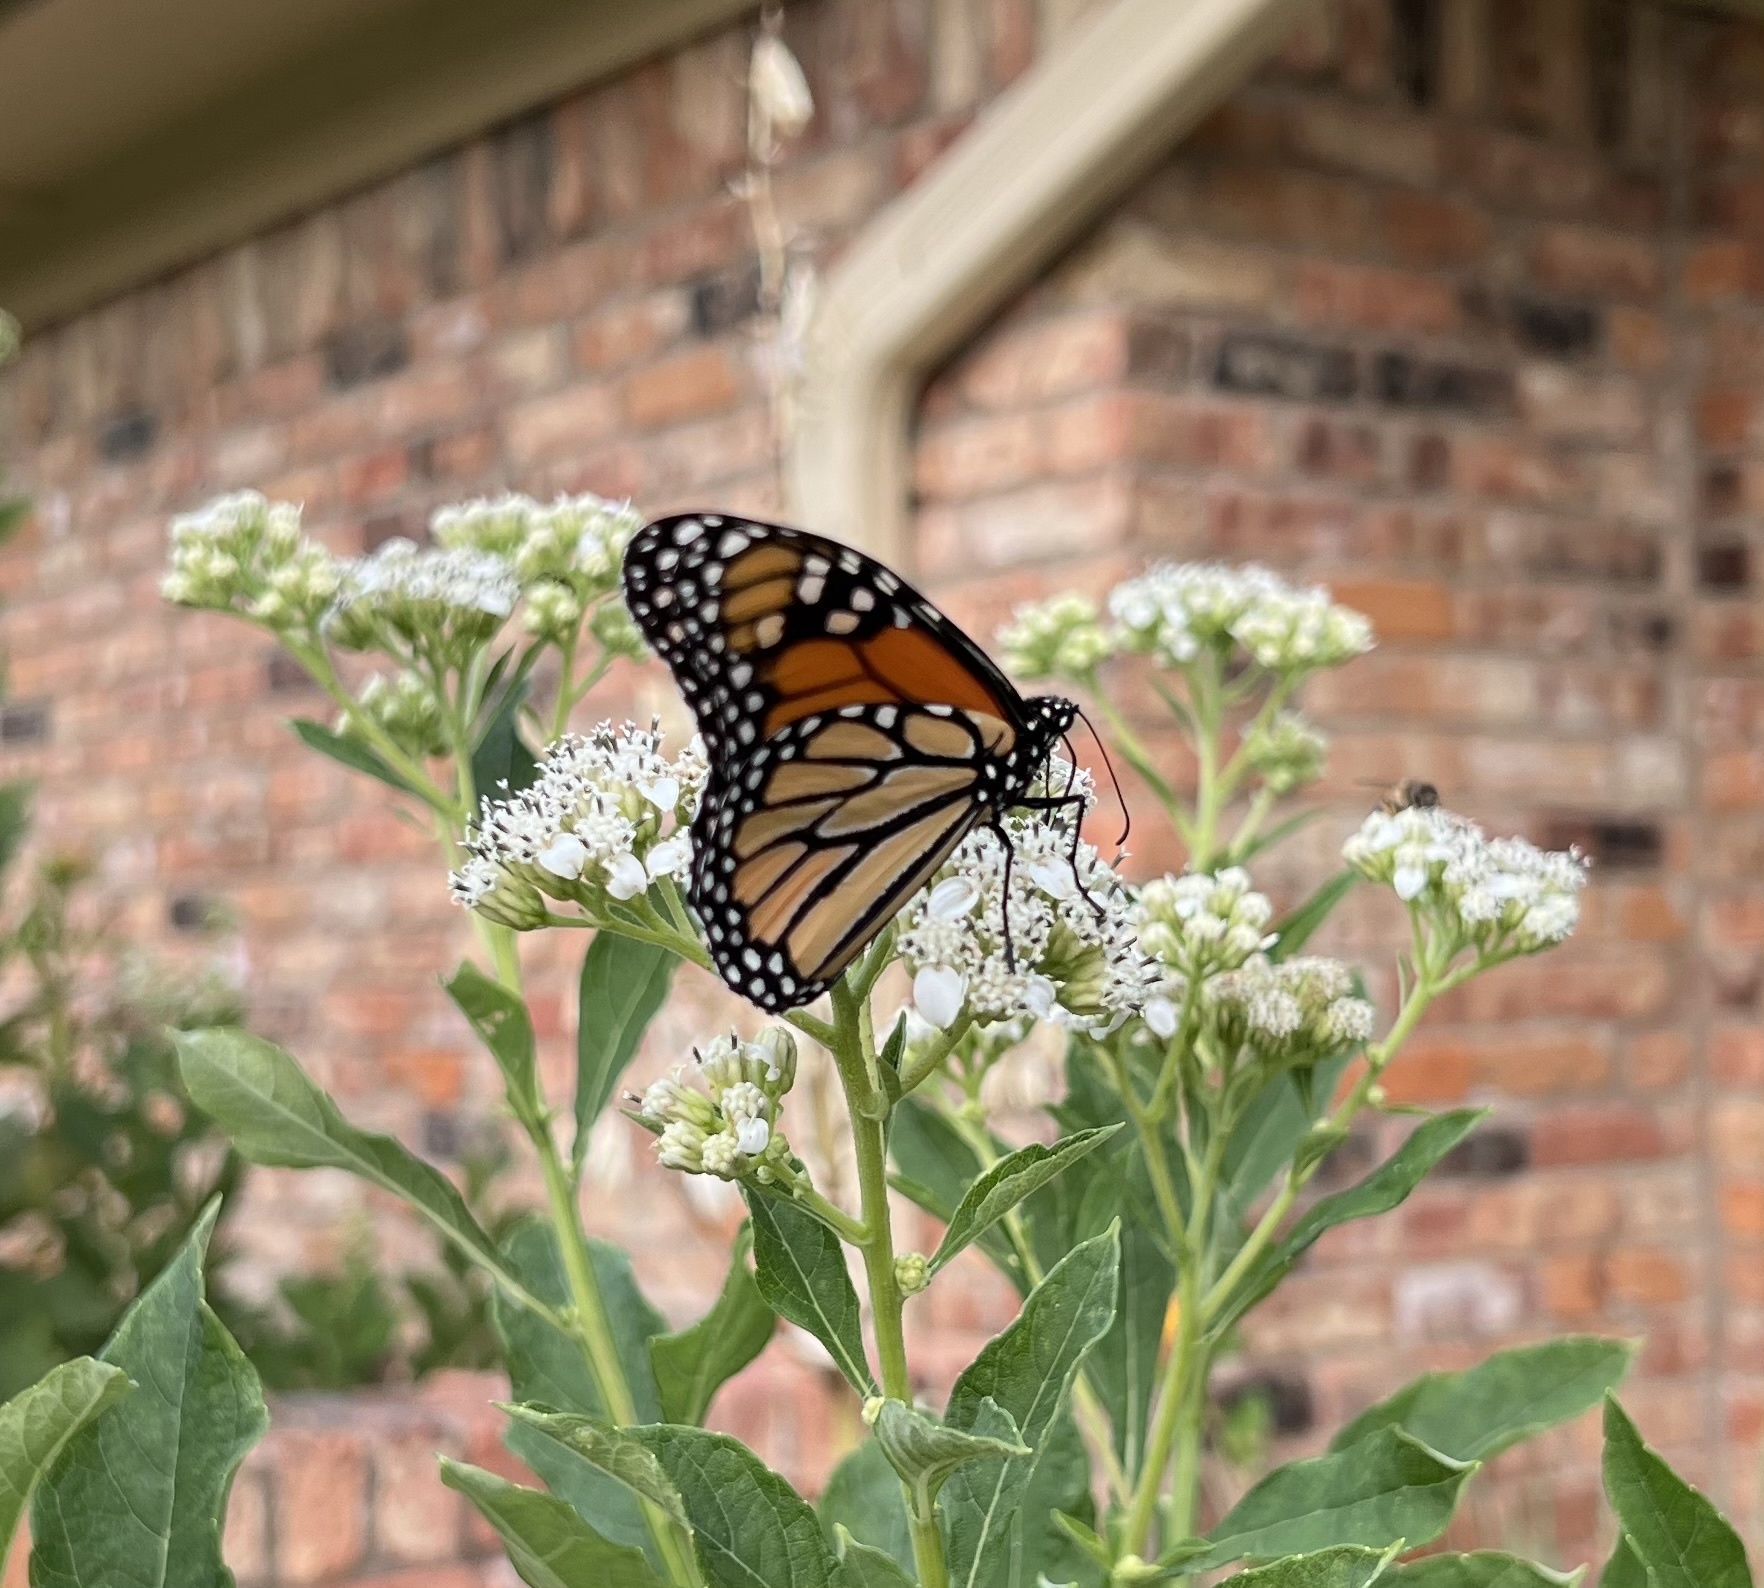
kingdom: Animalia
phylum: Arthropoda
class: Insecta
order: Lepidoptera
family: Nymphalidae
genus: Danaus
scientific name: Danaus plexippus
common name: Monarch
